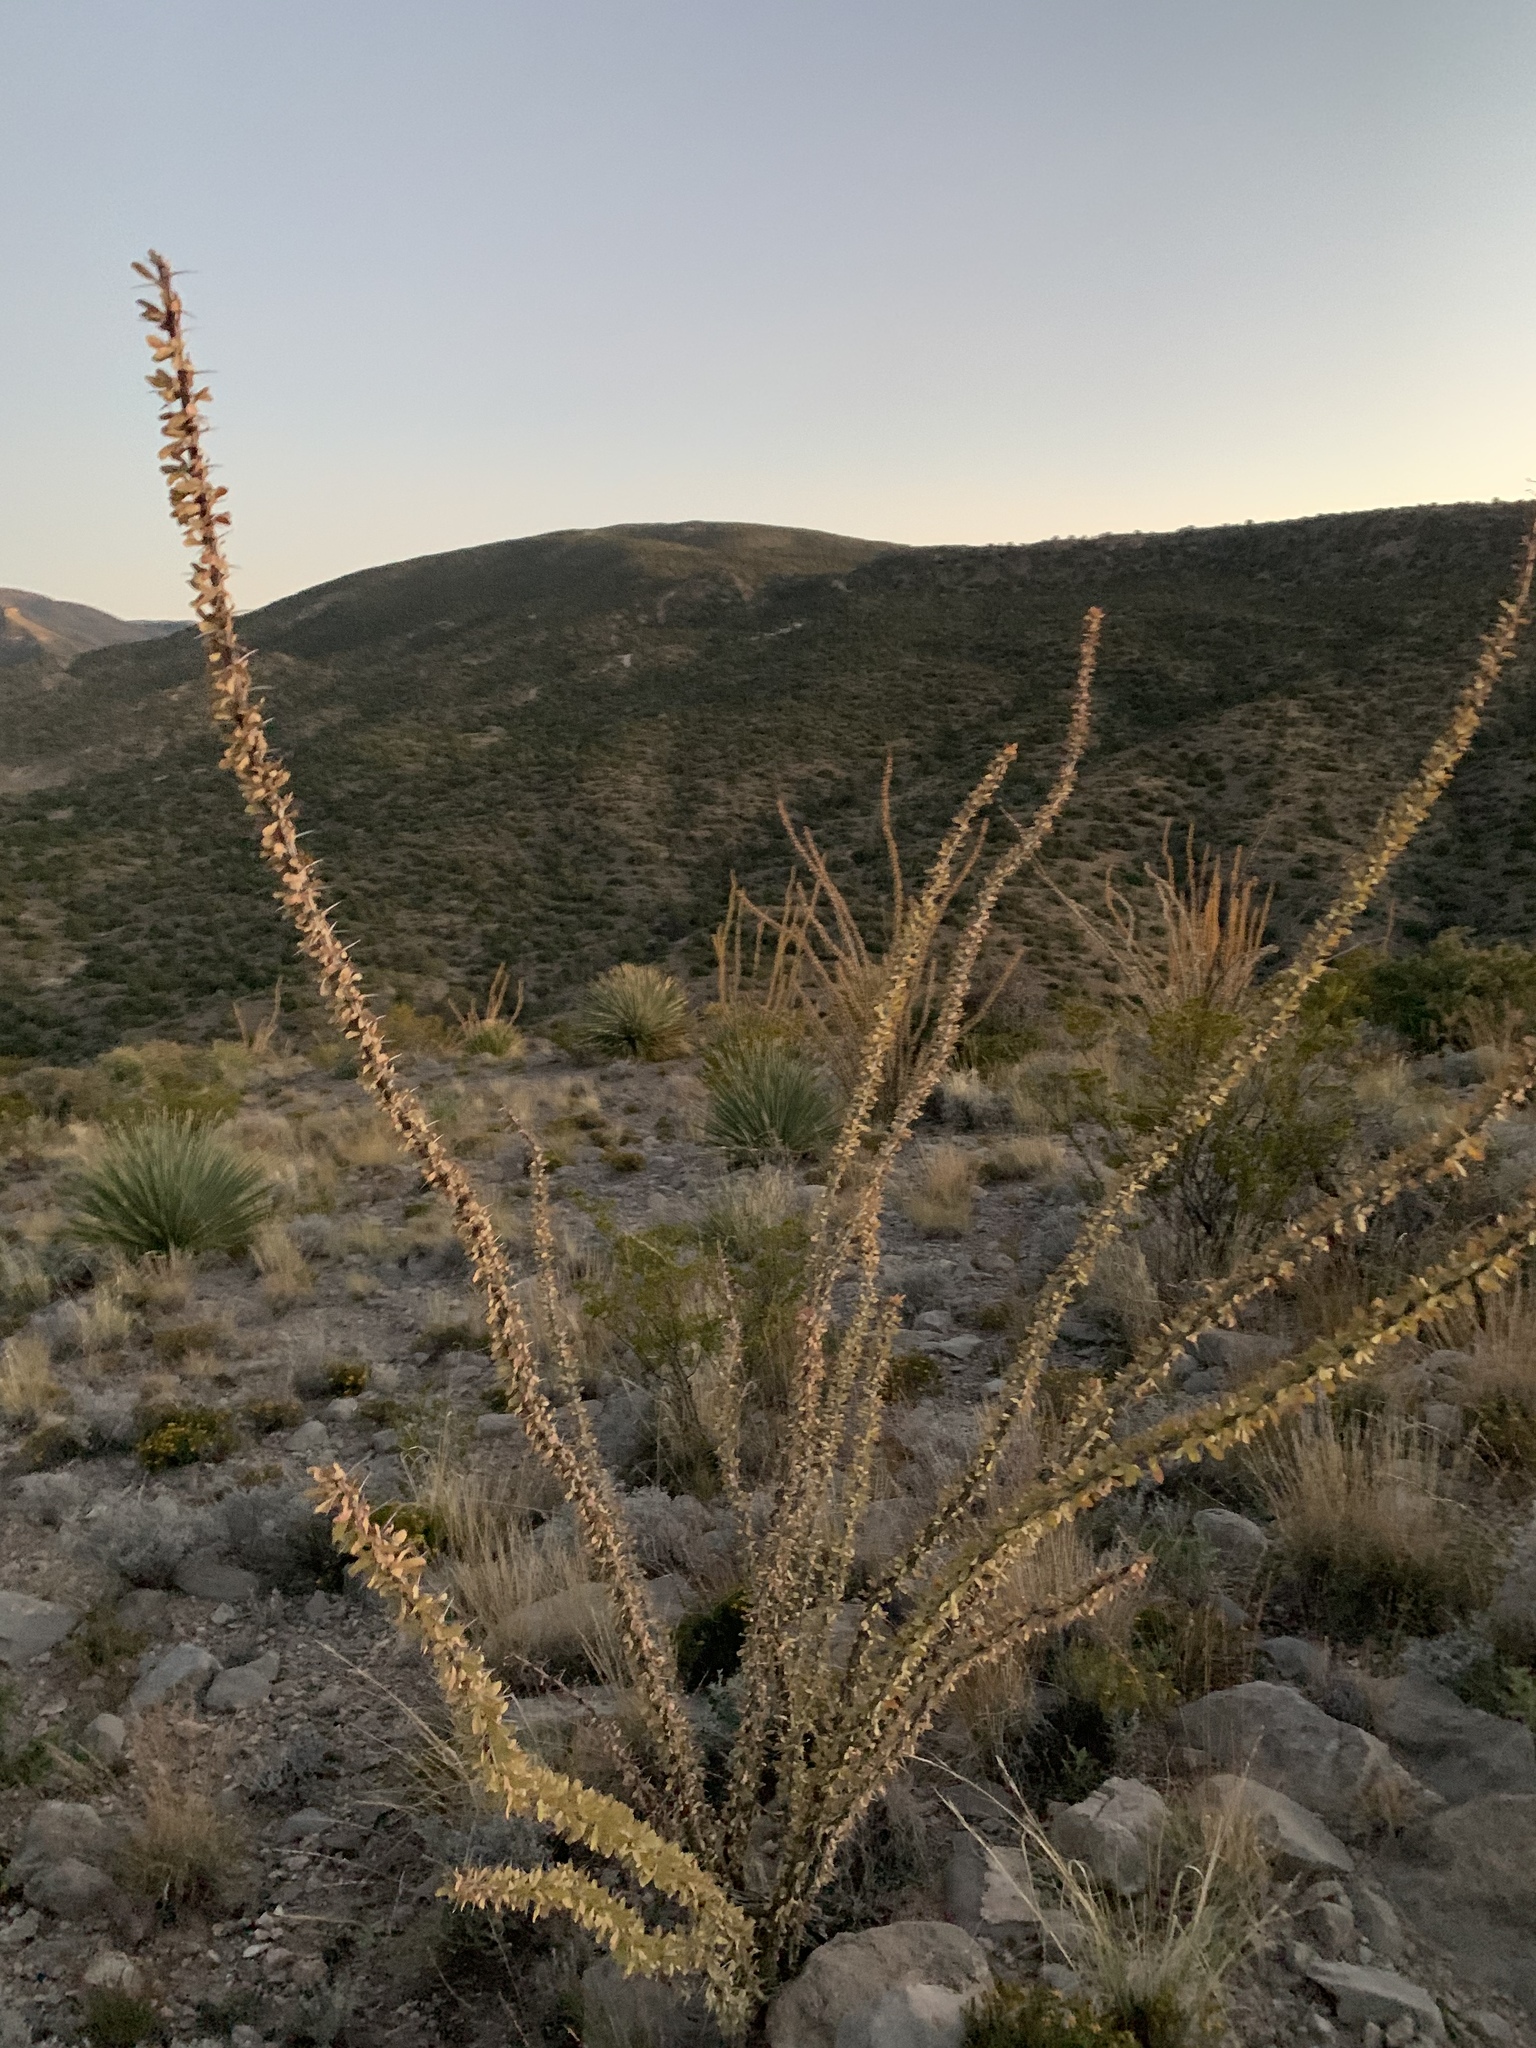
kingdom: Plantae
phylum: Tracheophyta
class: Magnoliopsida
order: Ericales
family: Fouquieriaceae
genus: Fouquieria
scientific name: Fouquieria splendens
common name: Vine-cactus
